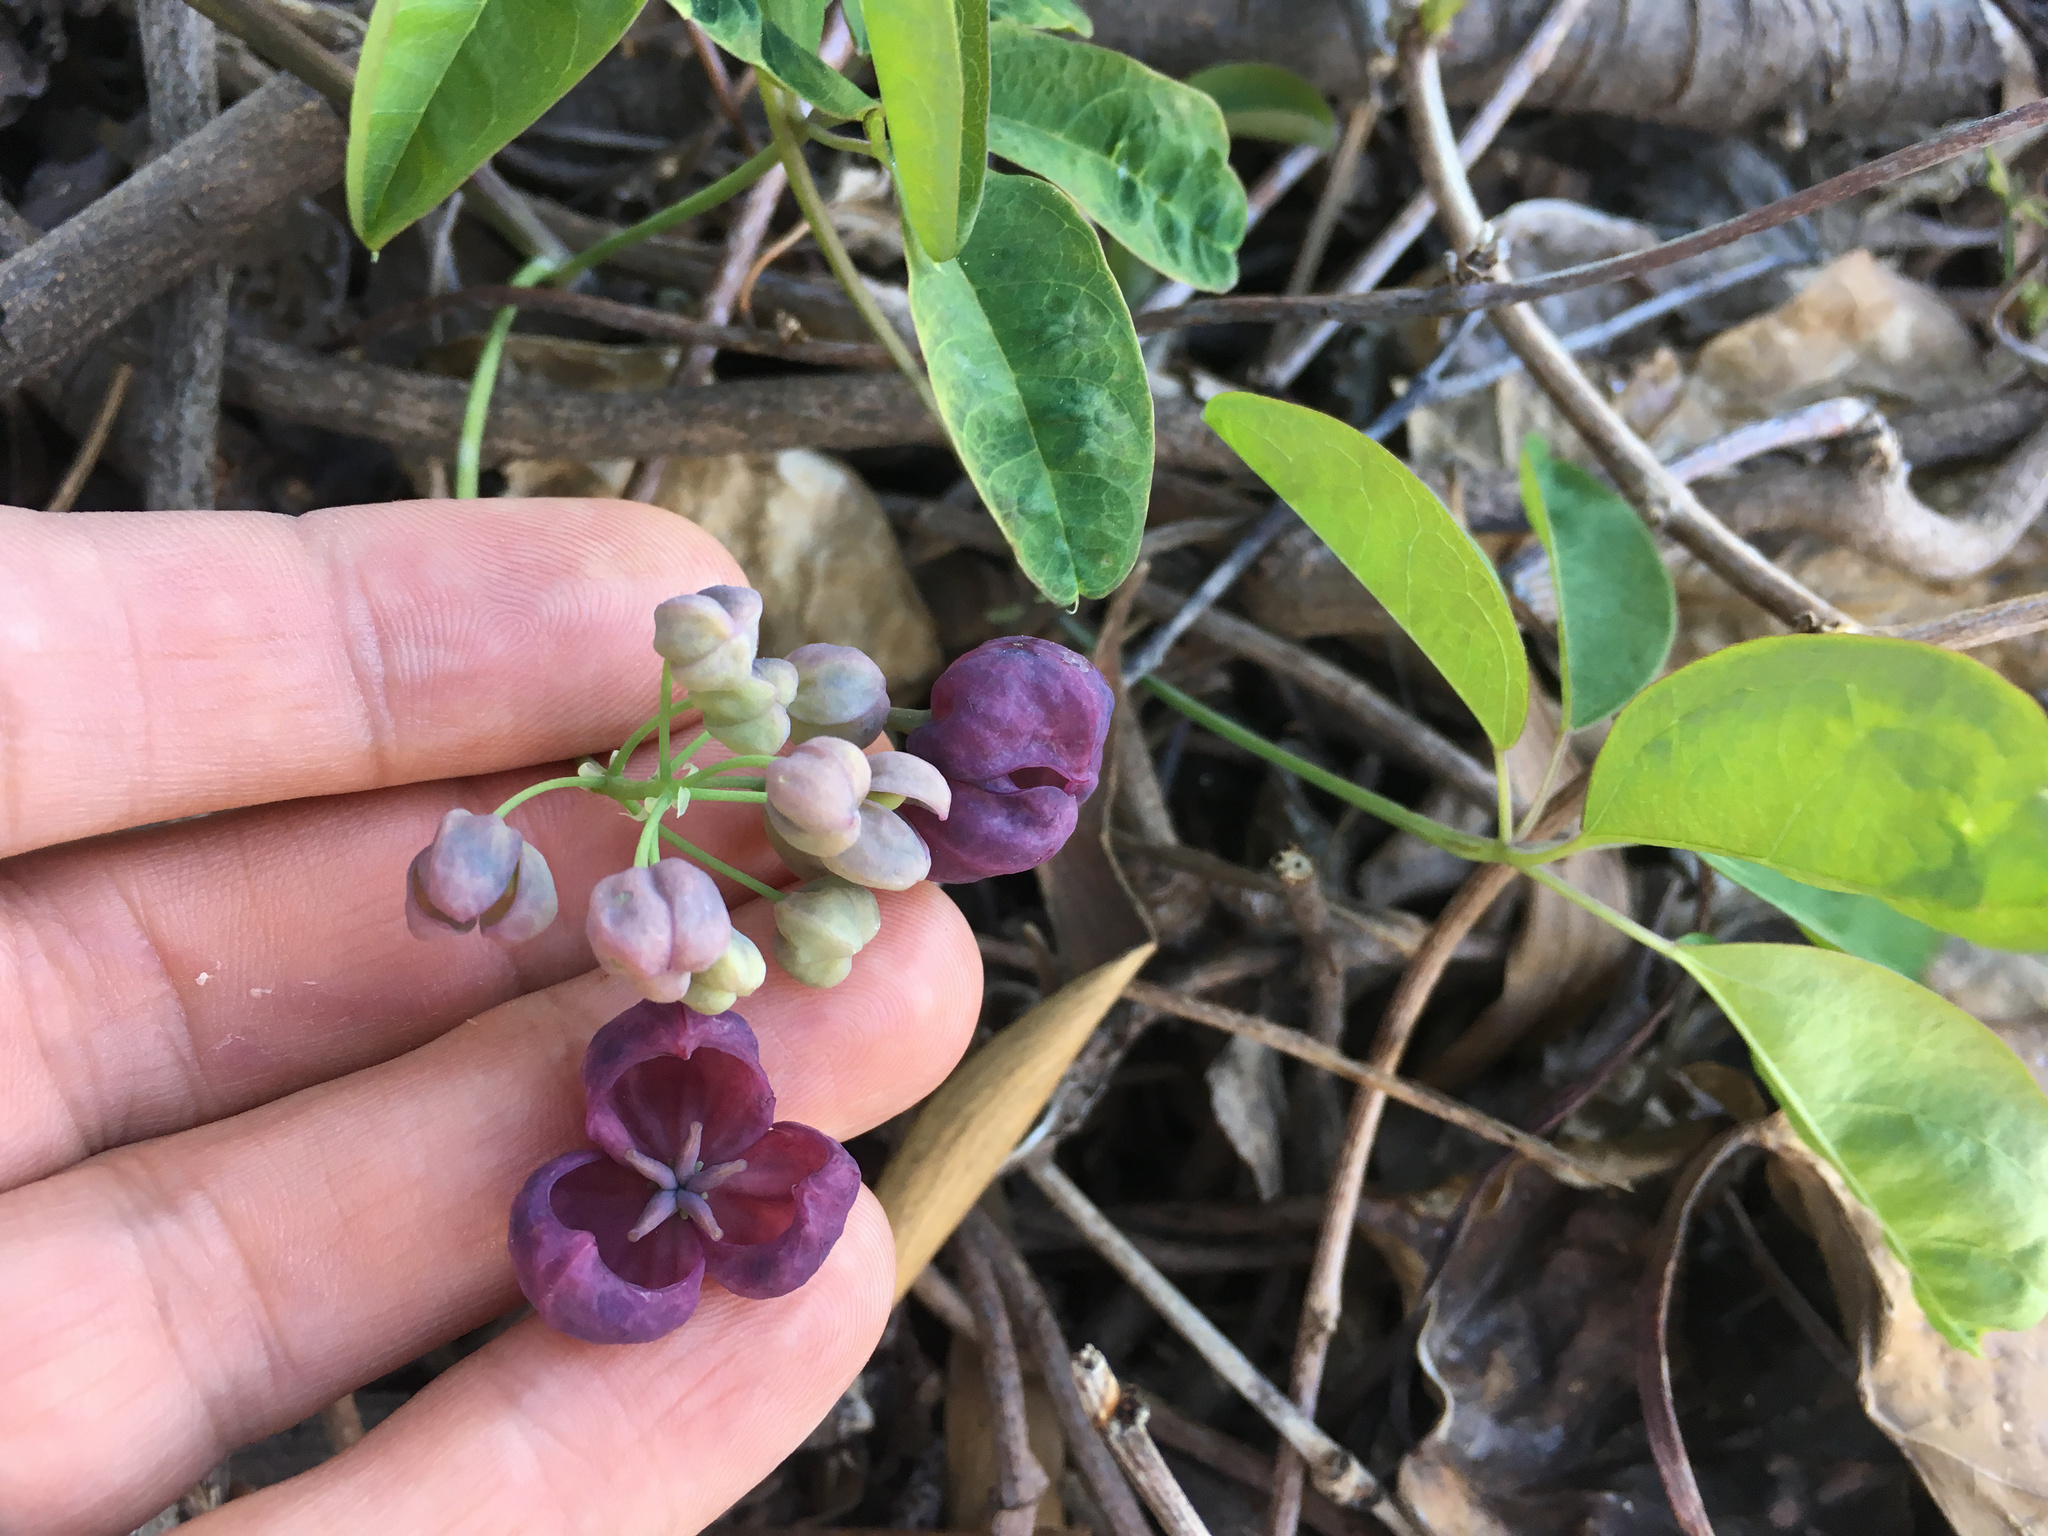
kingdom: Plantae
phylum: Tracheophyta
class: Magnoliopsida
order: Ranunculales
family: Lardizabalaceae
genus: Akebia
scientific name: Akebia quinata
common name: Five-leaf akebia
